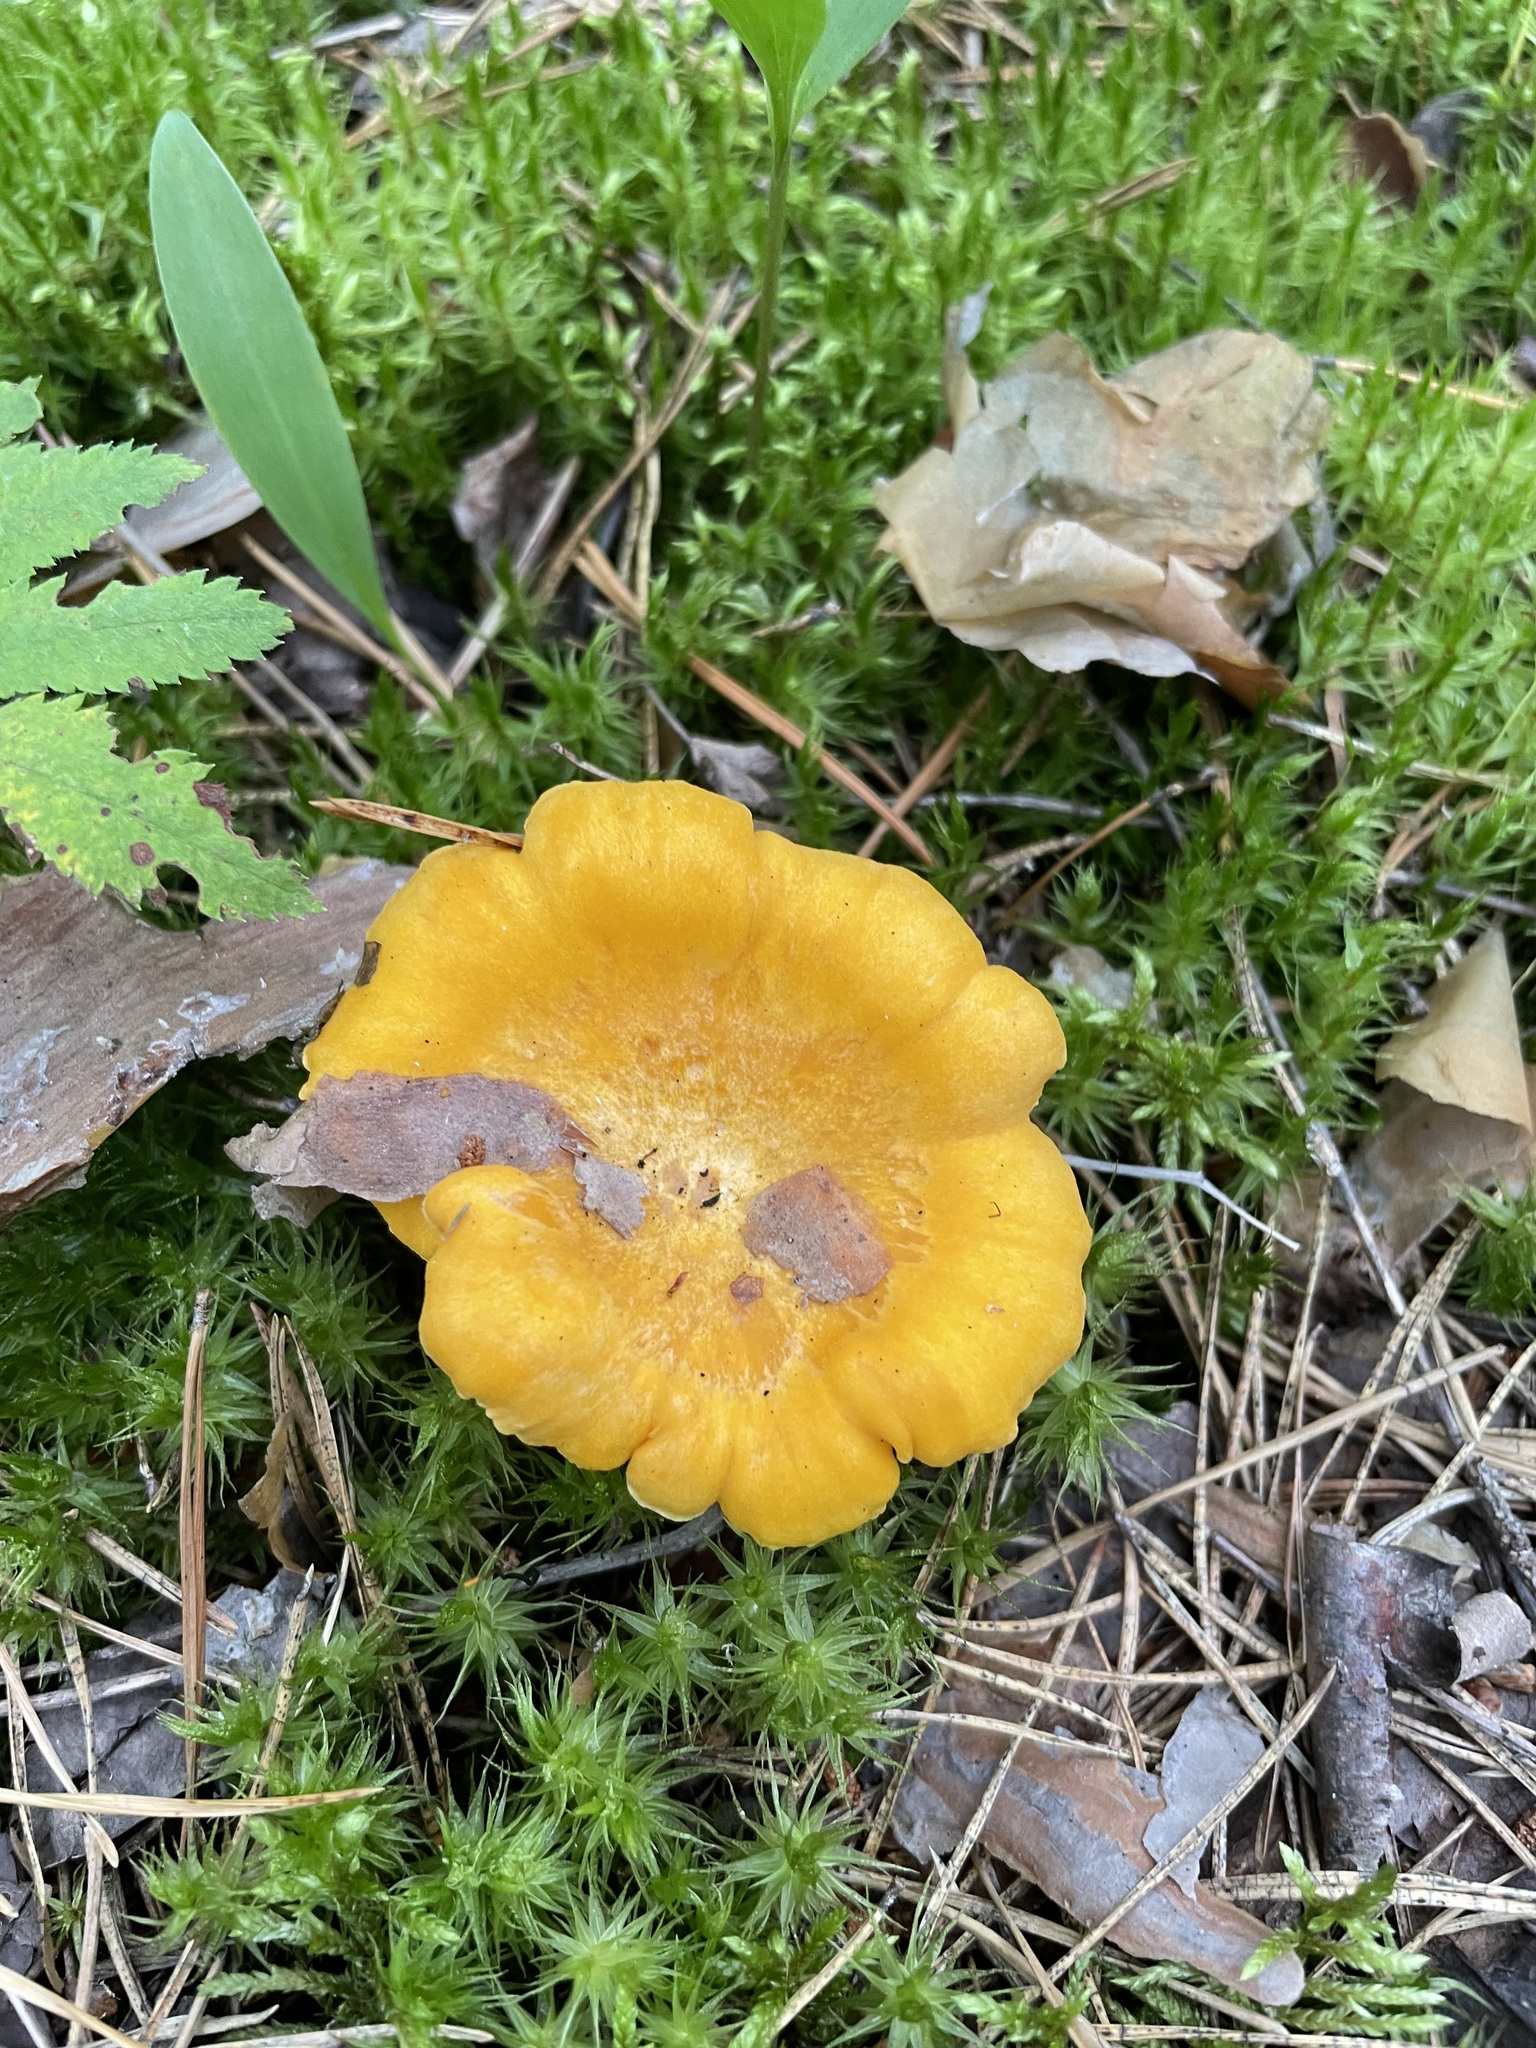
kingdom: Fungi
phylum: Basidiomycota
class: Agaricomycetes
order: Cantharellales
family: Hydnaceae
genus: Cantharellus
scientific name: Cantharellus cibarius
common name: Chanterelle
